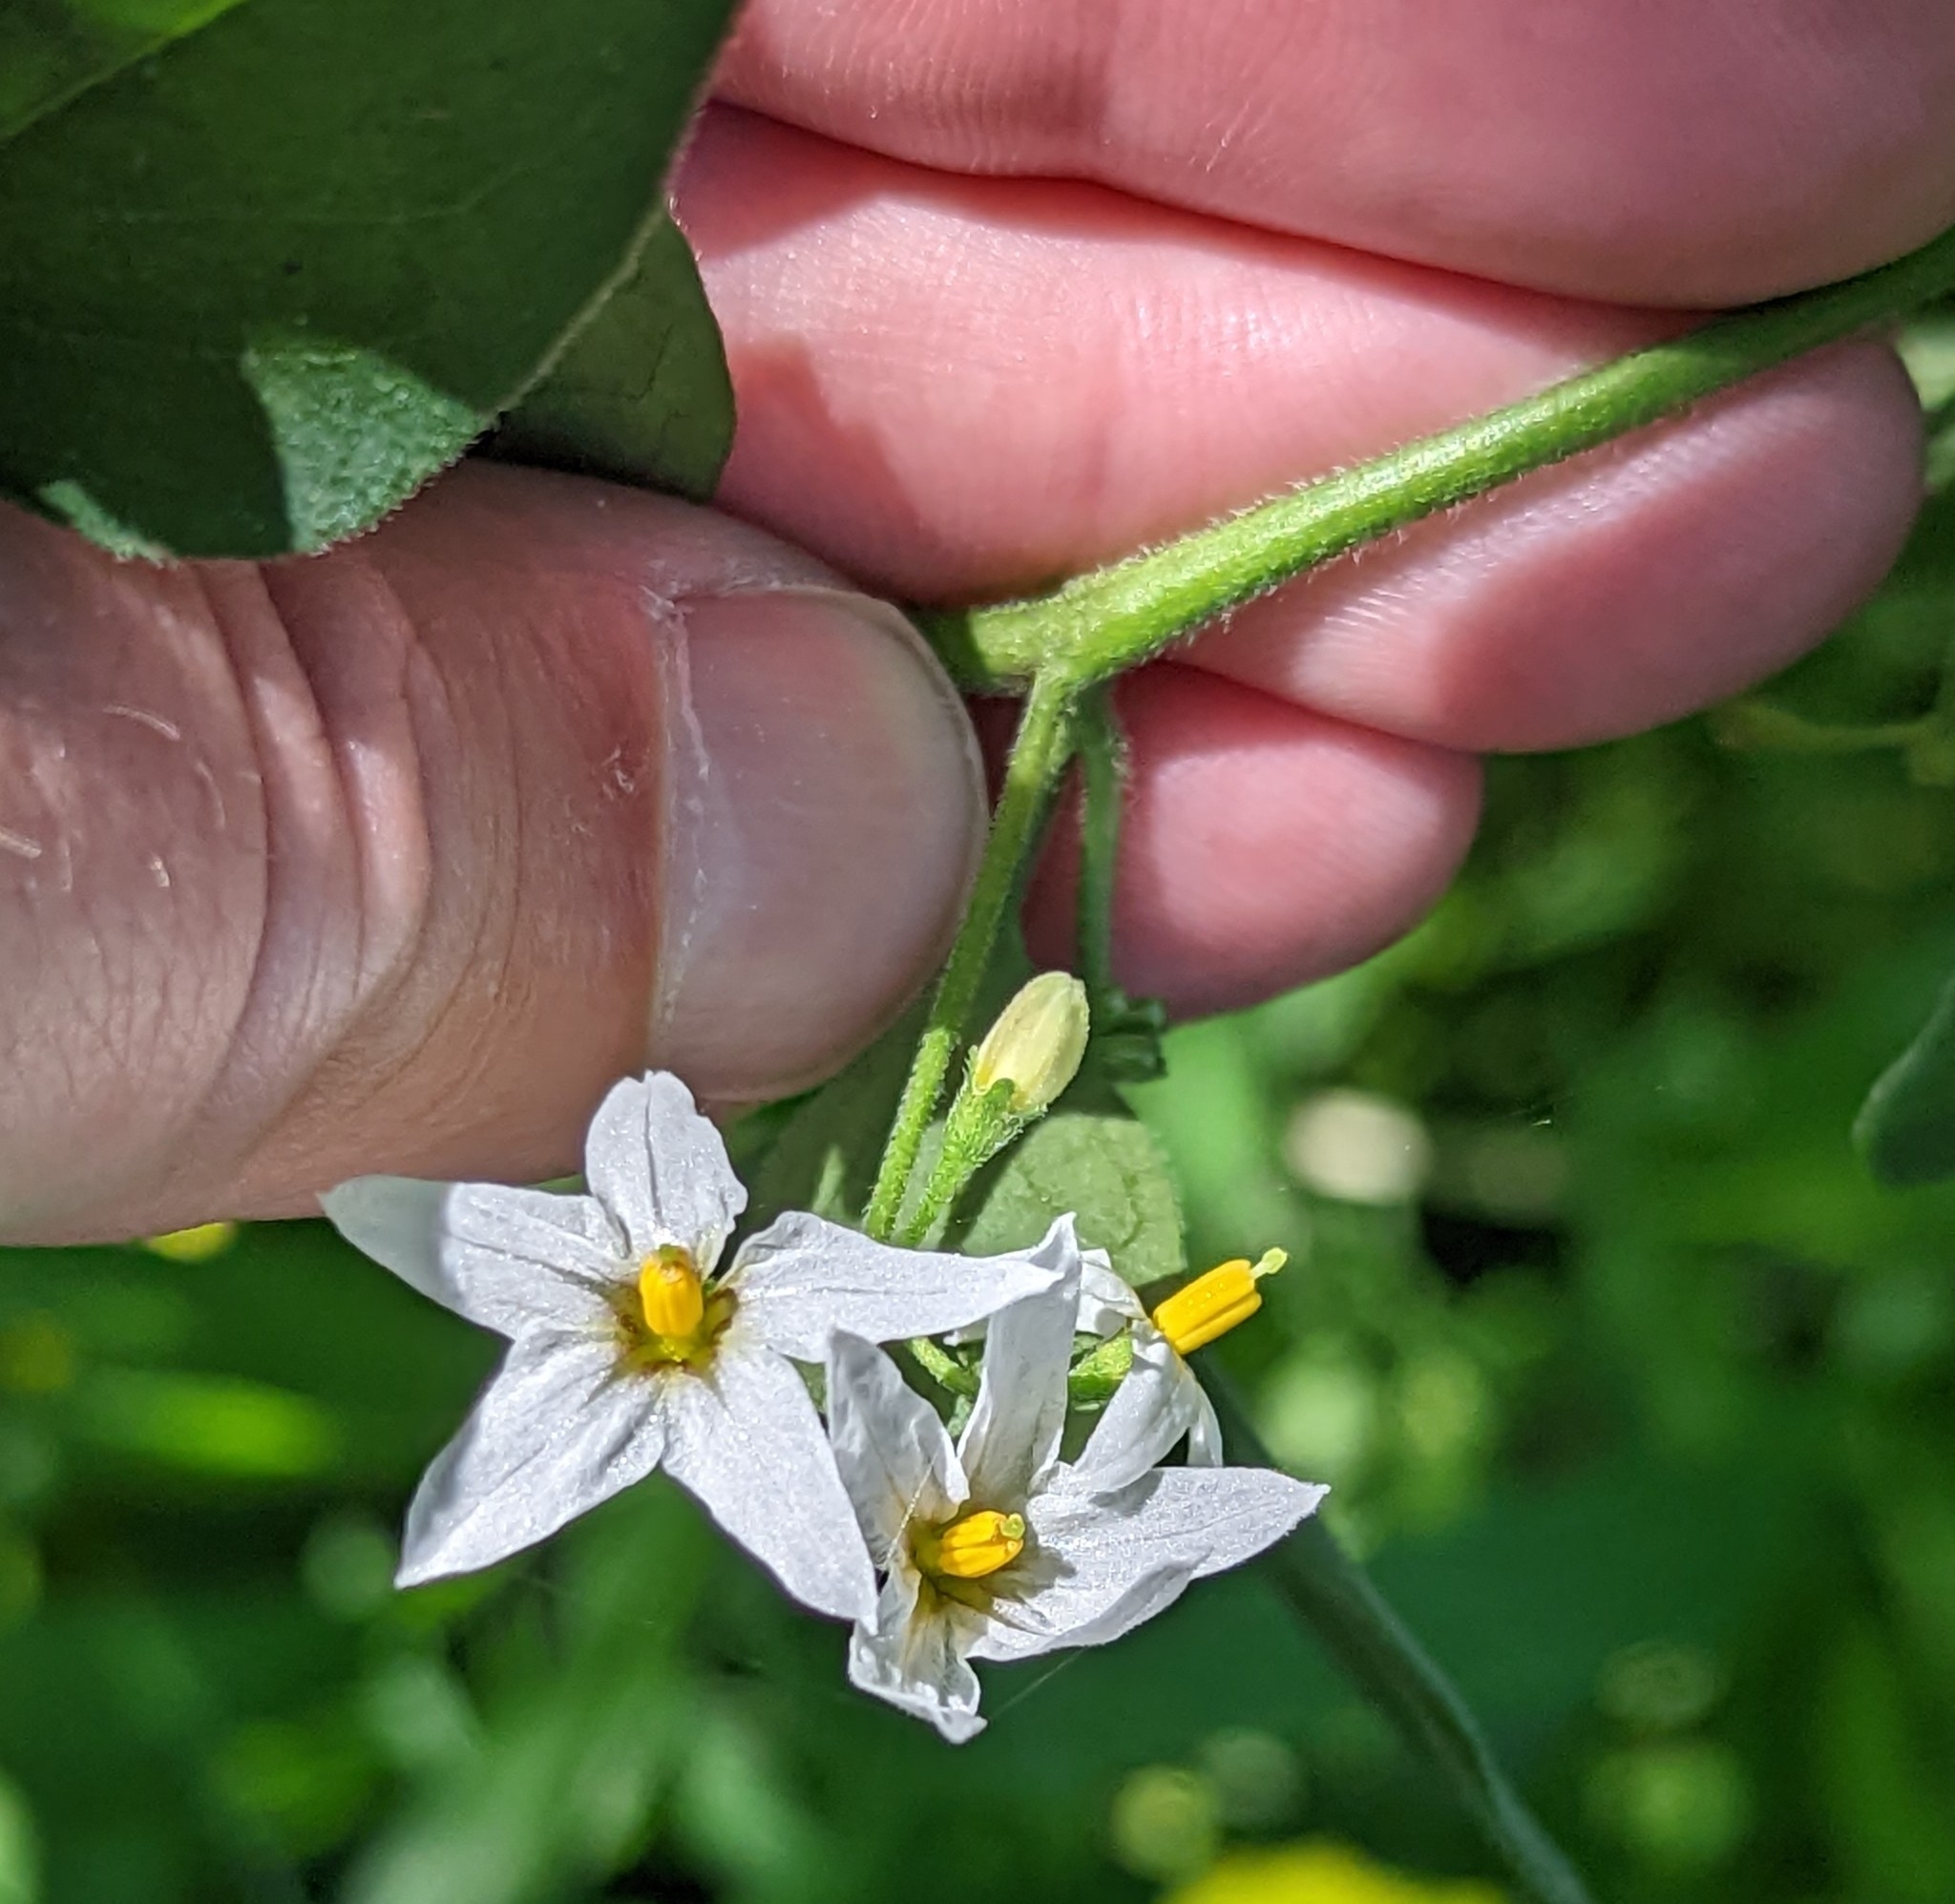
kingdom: Plantae
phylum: Tracheophyta
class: Magnoliopsida
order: Solanales
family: Solanaceae
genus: Solanum
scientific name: Solanum chenopodioides
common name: Tall nightshade
